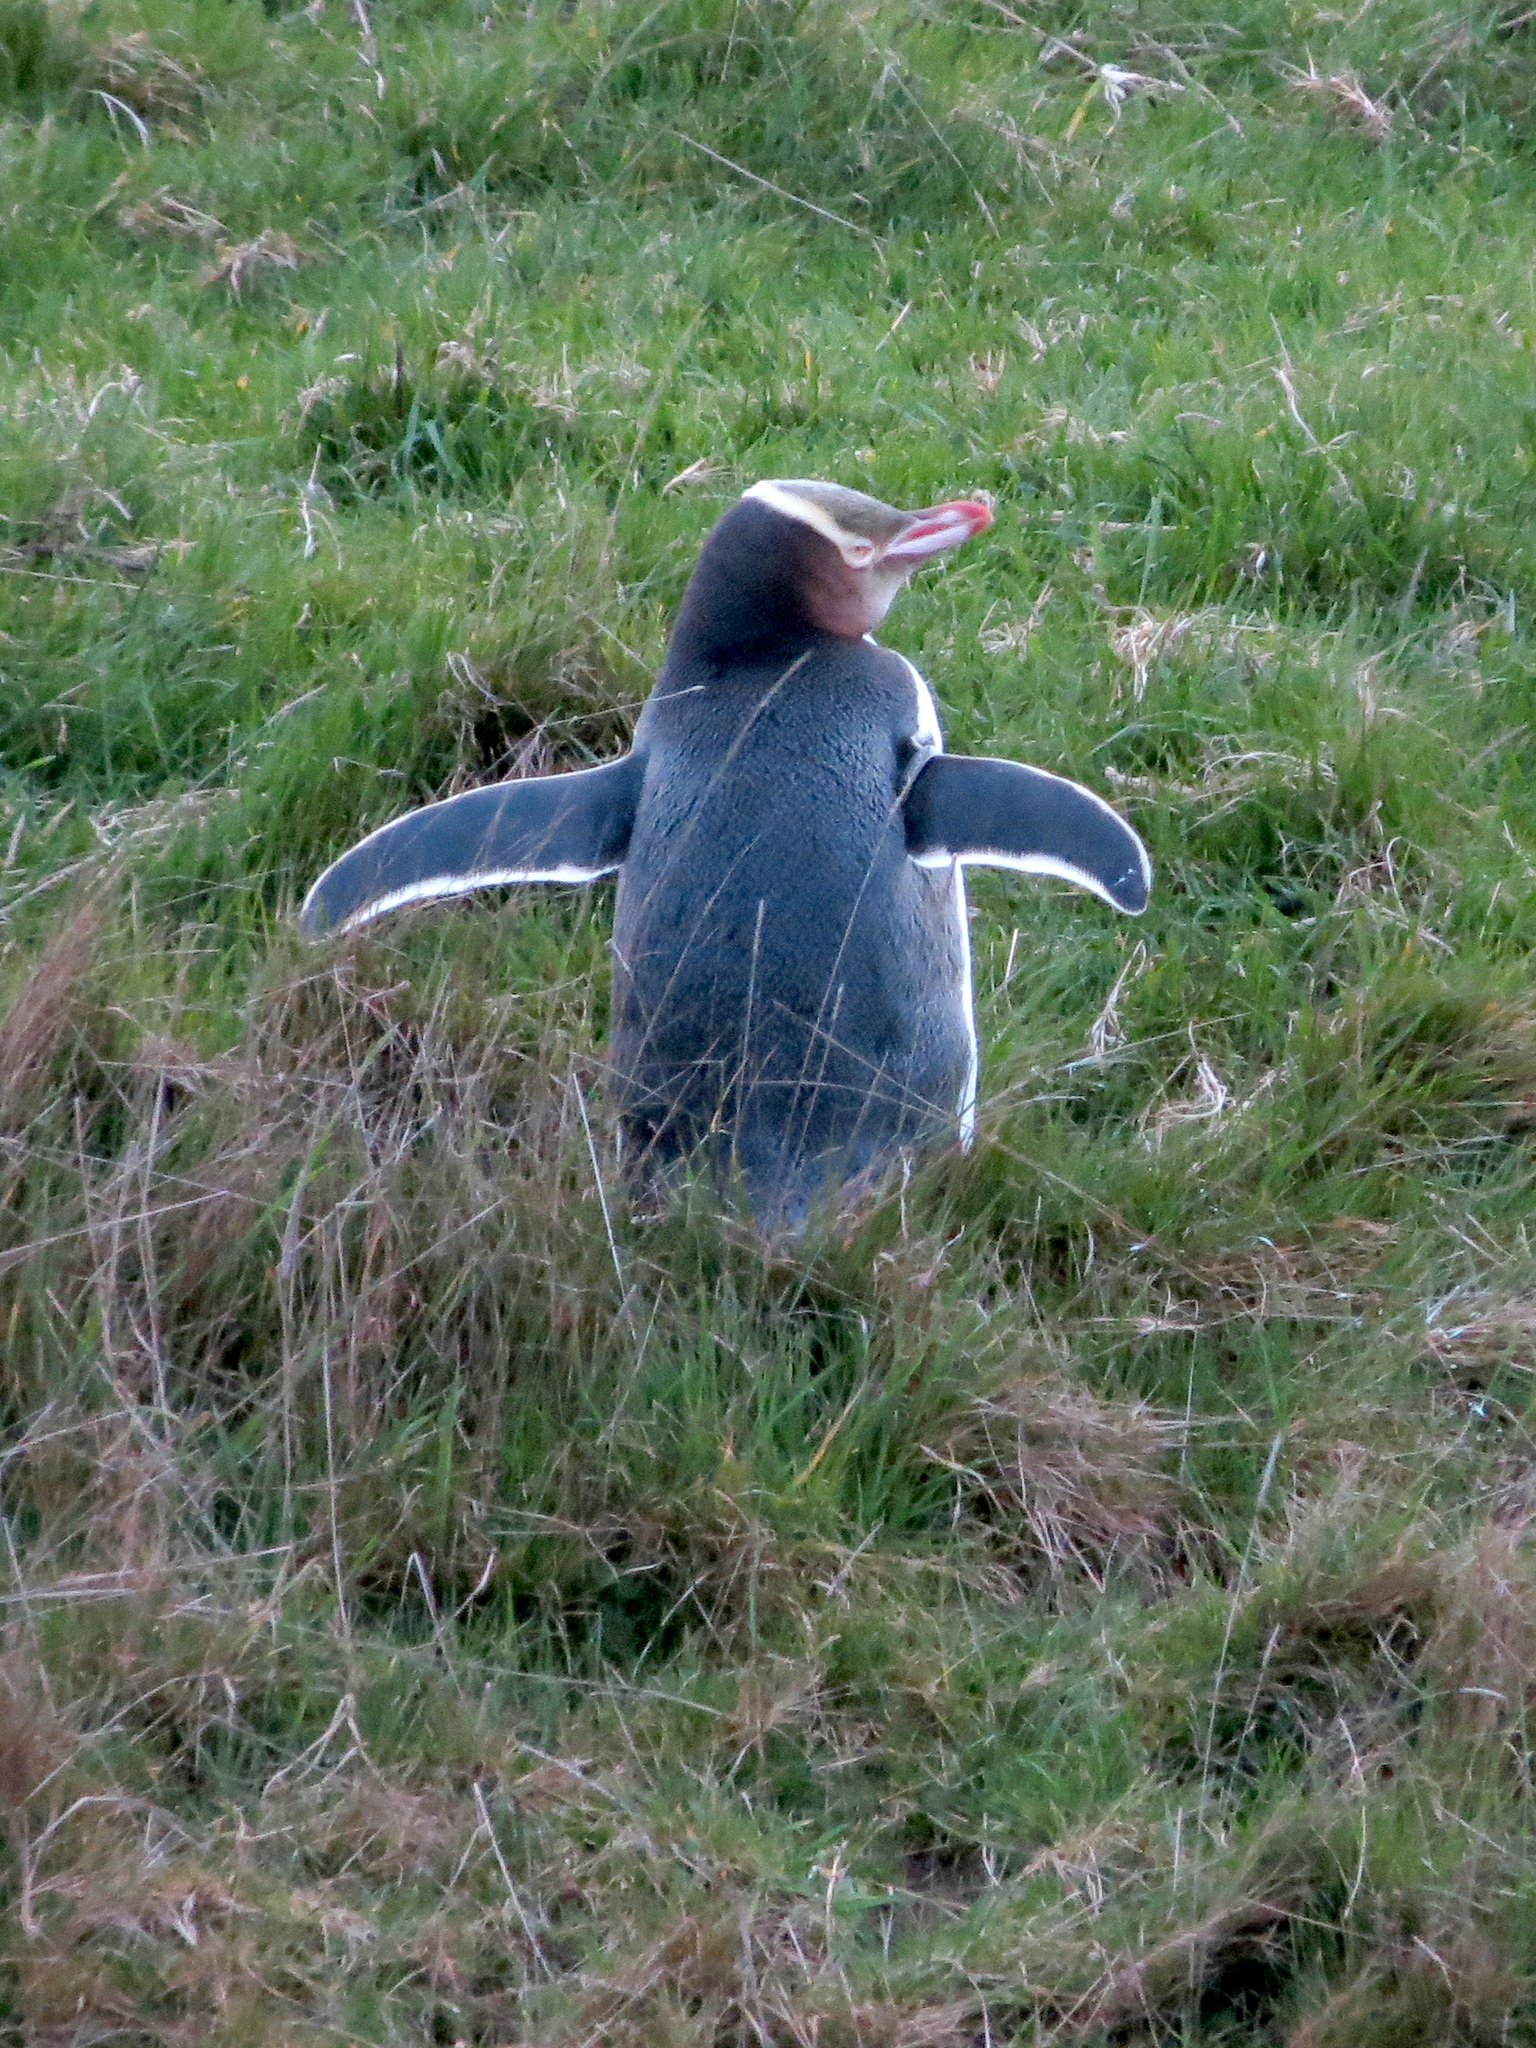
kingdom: Animalia
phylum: Chordata
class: Aves
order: Sphenisciformes
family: Spheniscidae
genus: Megadyptes
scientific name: Megadyptes antipodes
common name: Yellow-eyed penguin
